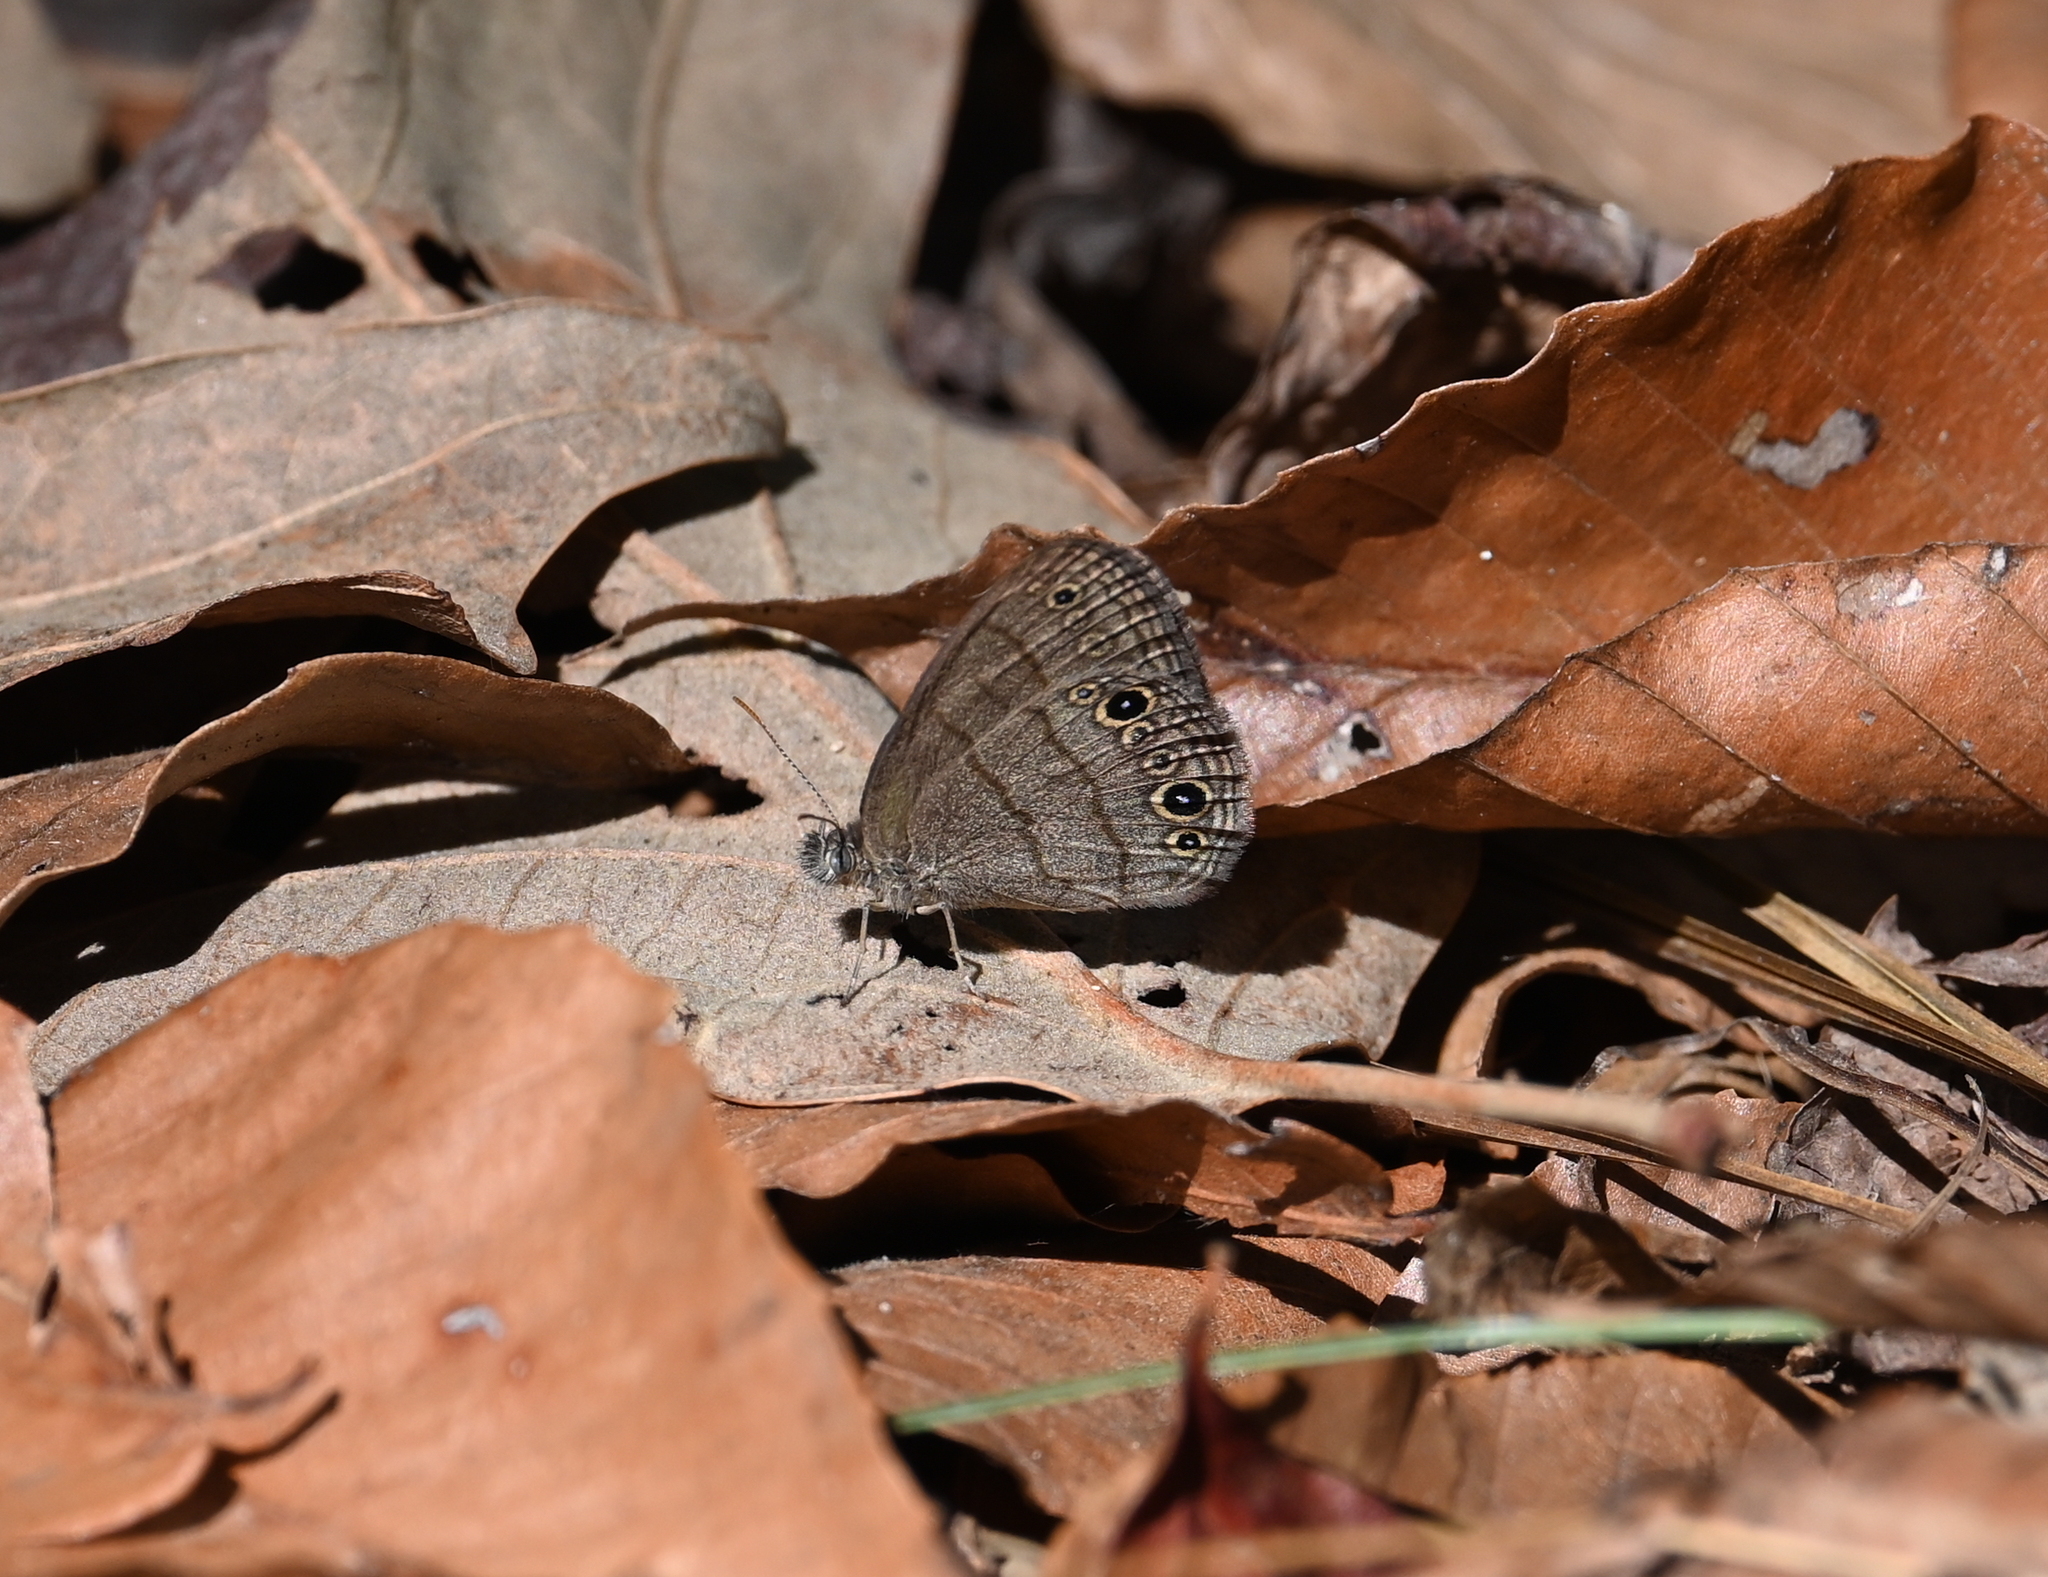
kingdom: Animalia
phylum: Arthropoda
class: Insecta
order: Lepidoptera
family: Nymphalidae
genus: Hermeuptychia
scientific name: Hermeuptychia hermes
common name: Hermes satyr
